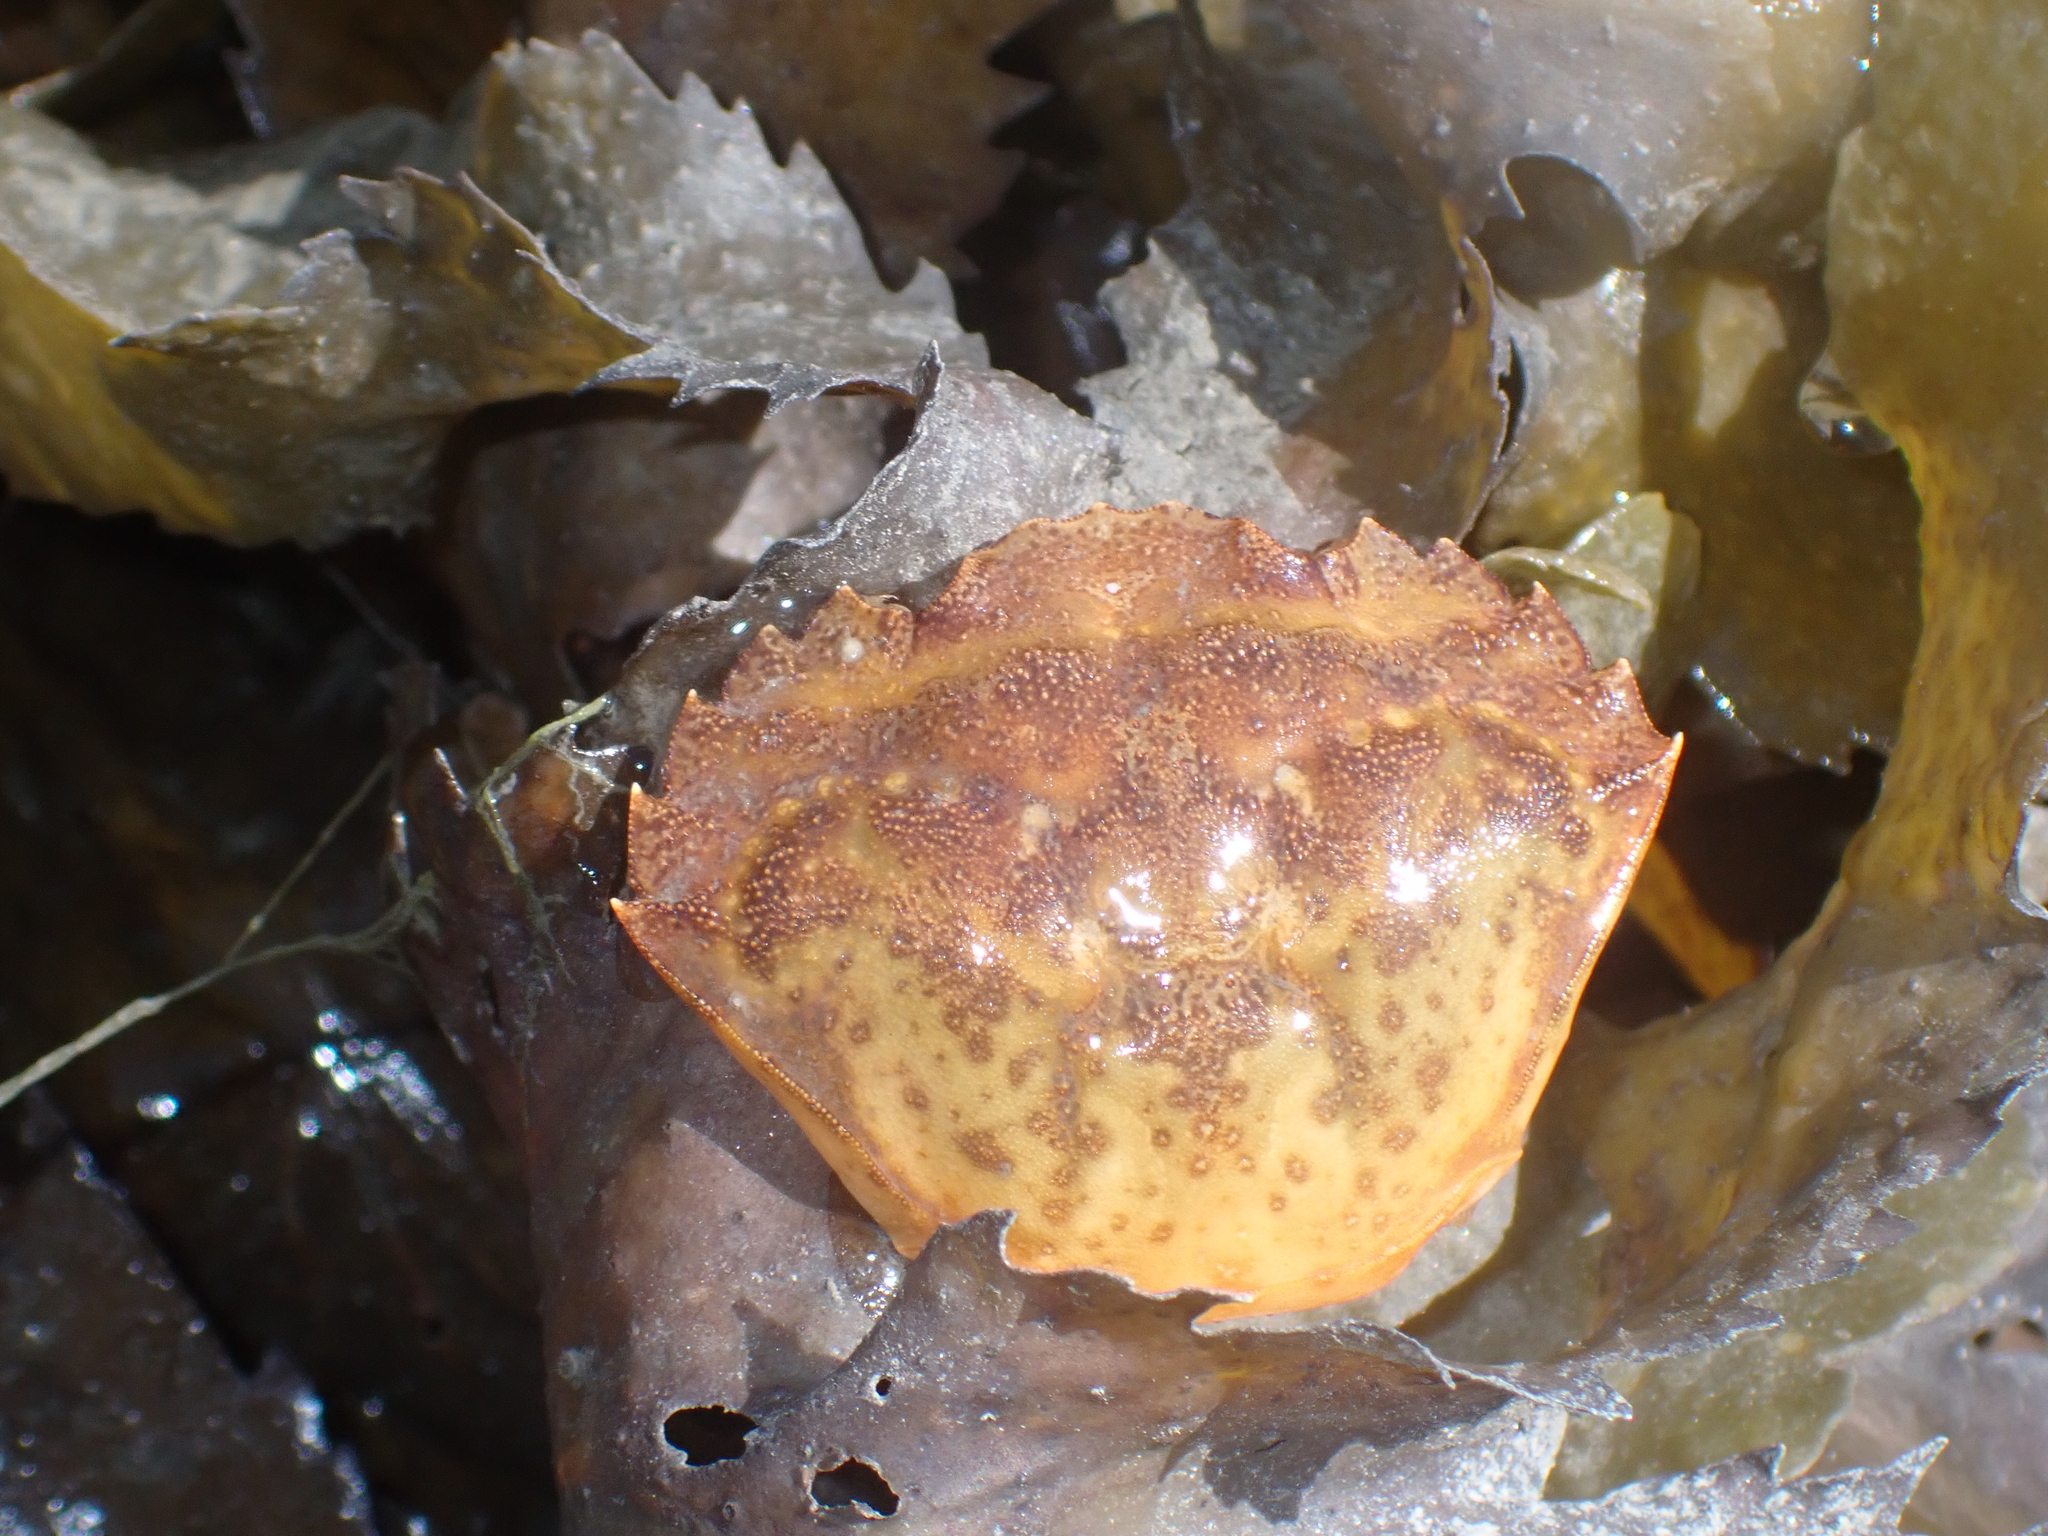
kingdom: Animalia
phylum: Arthropoda
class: Malacostraca
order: Decapoda
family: Carcinidae
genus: Carcinus
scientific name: Carcinus maenas
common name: European green crab
